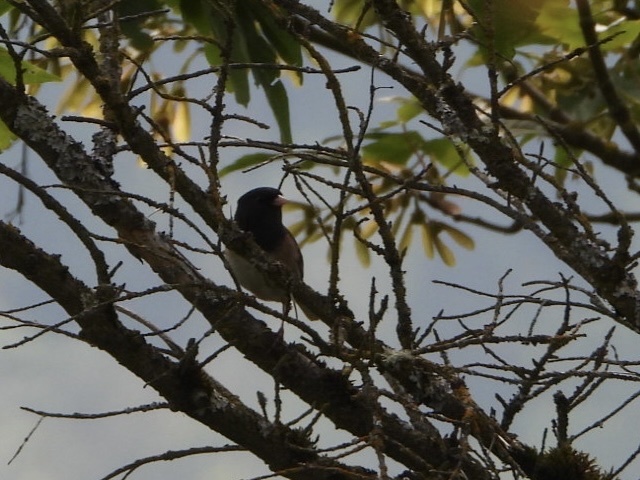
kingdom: Animalia
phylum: Chordata
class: Aves
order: Passeriformes
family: Passerellidae
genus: Junco
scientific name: Junco hyemalis
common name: Dark-eyed junco
